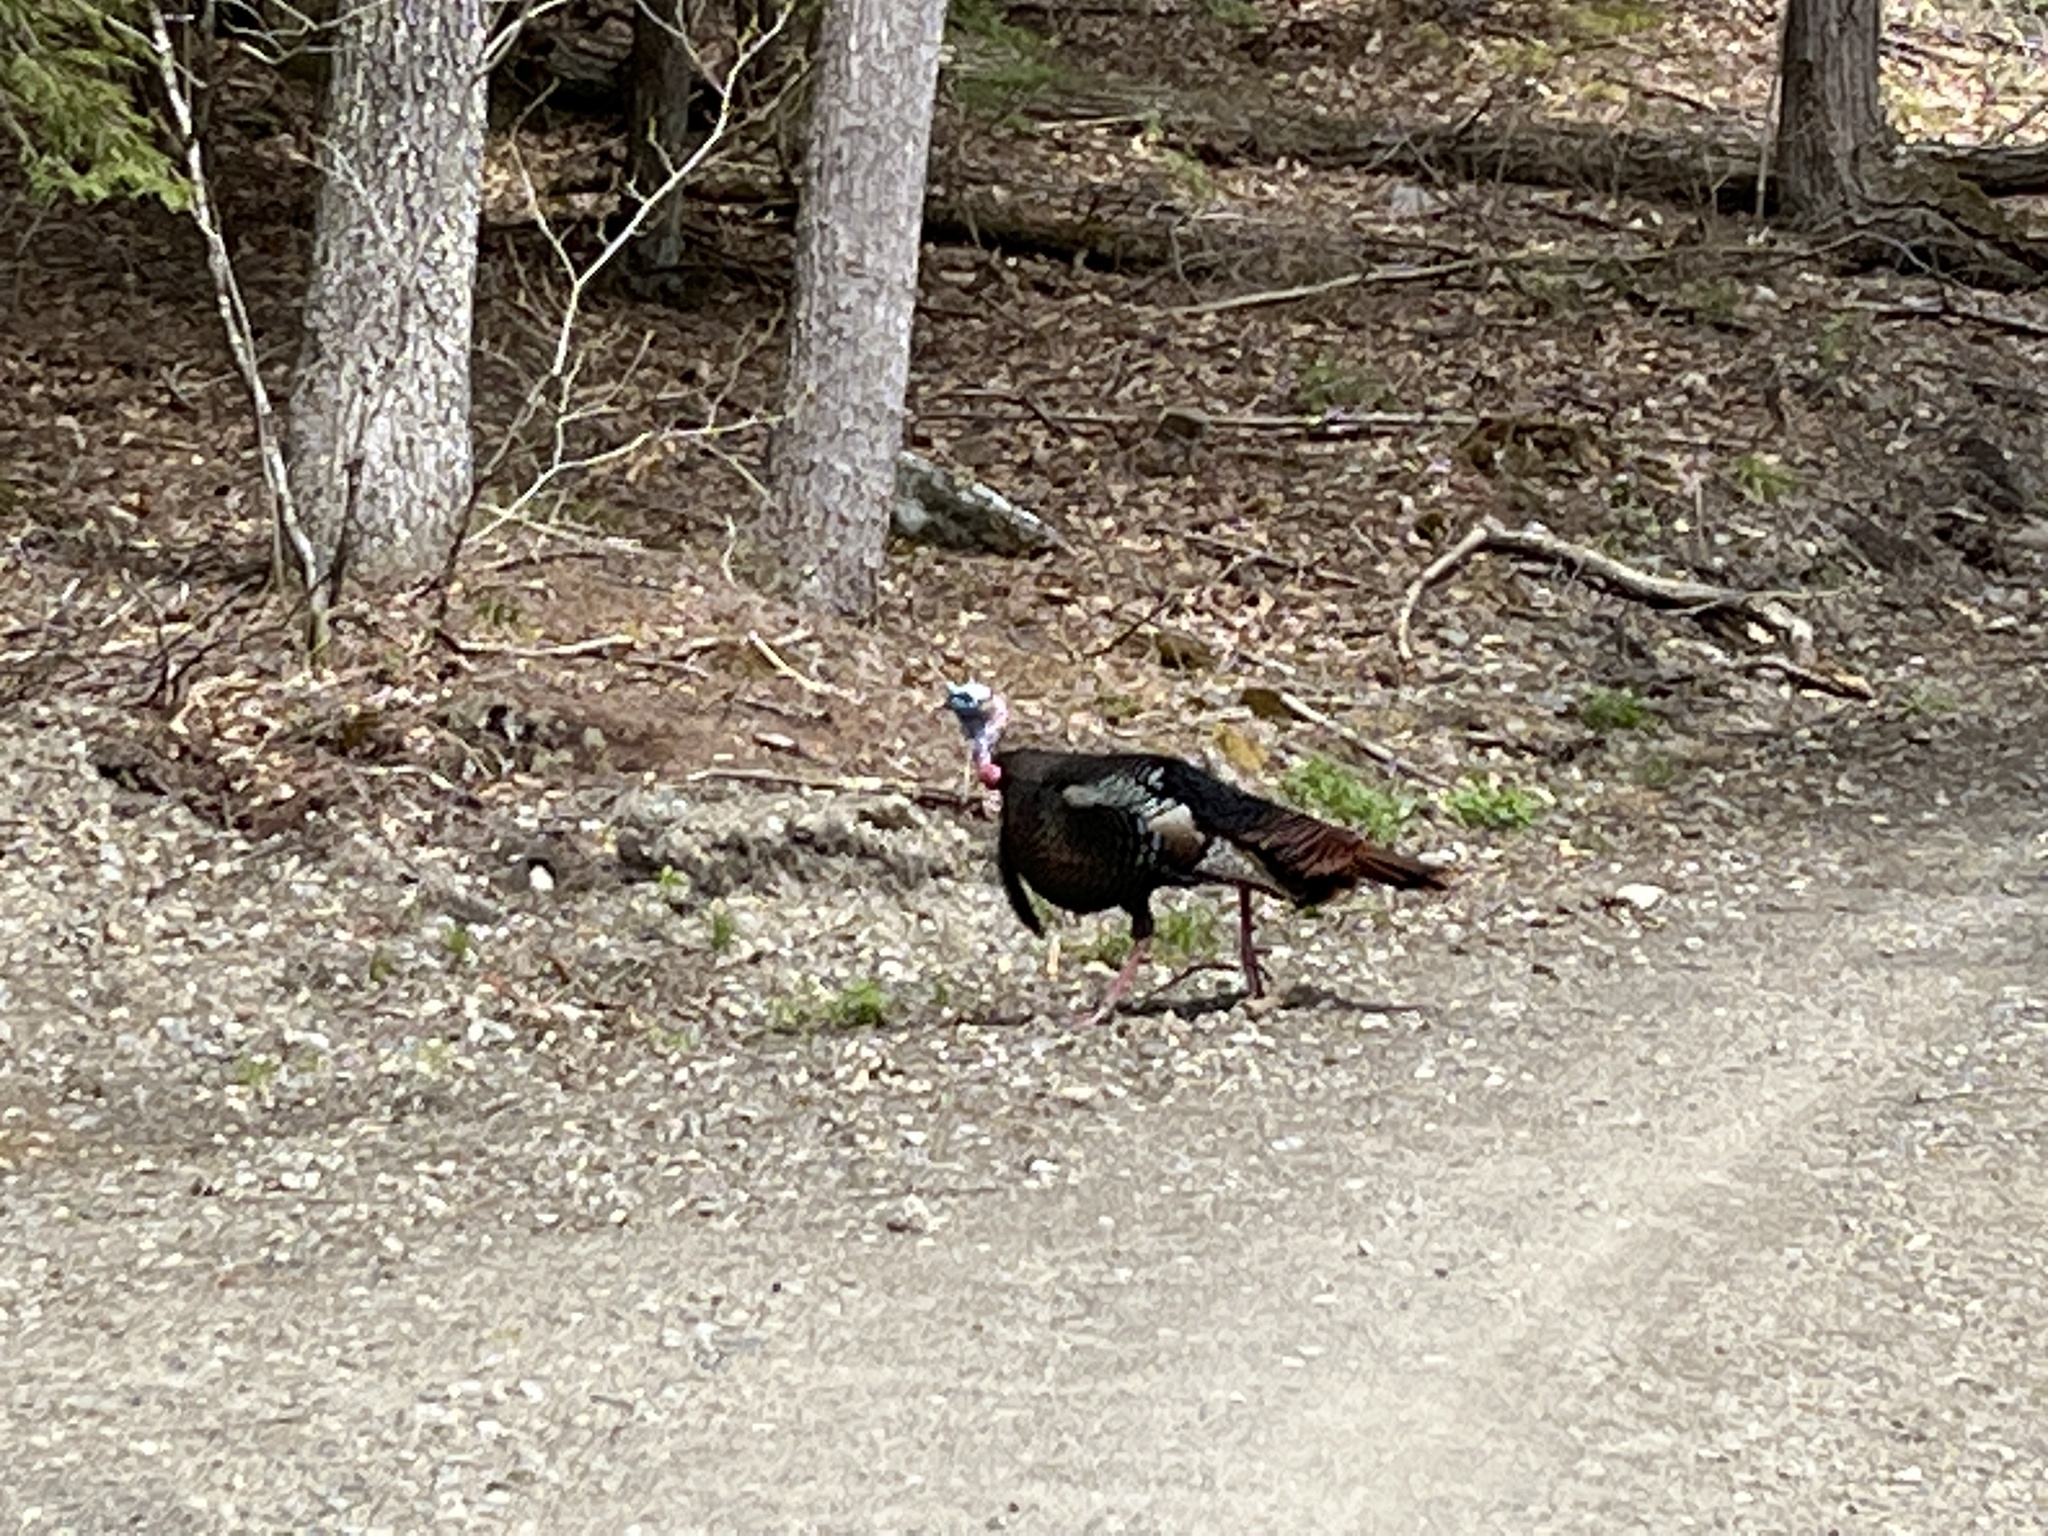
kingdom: Animalia
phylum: Chordata
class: Aves
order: Galliformes
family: Phasianidae
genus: Meleagris
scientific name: Meleagris gallopavo
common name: Wild turkey
